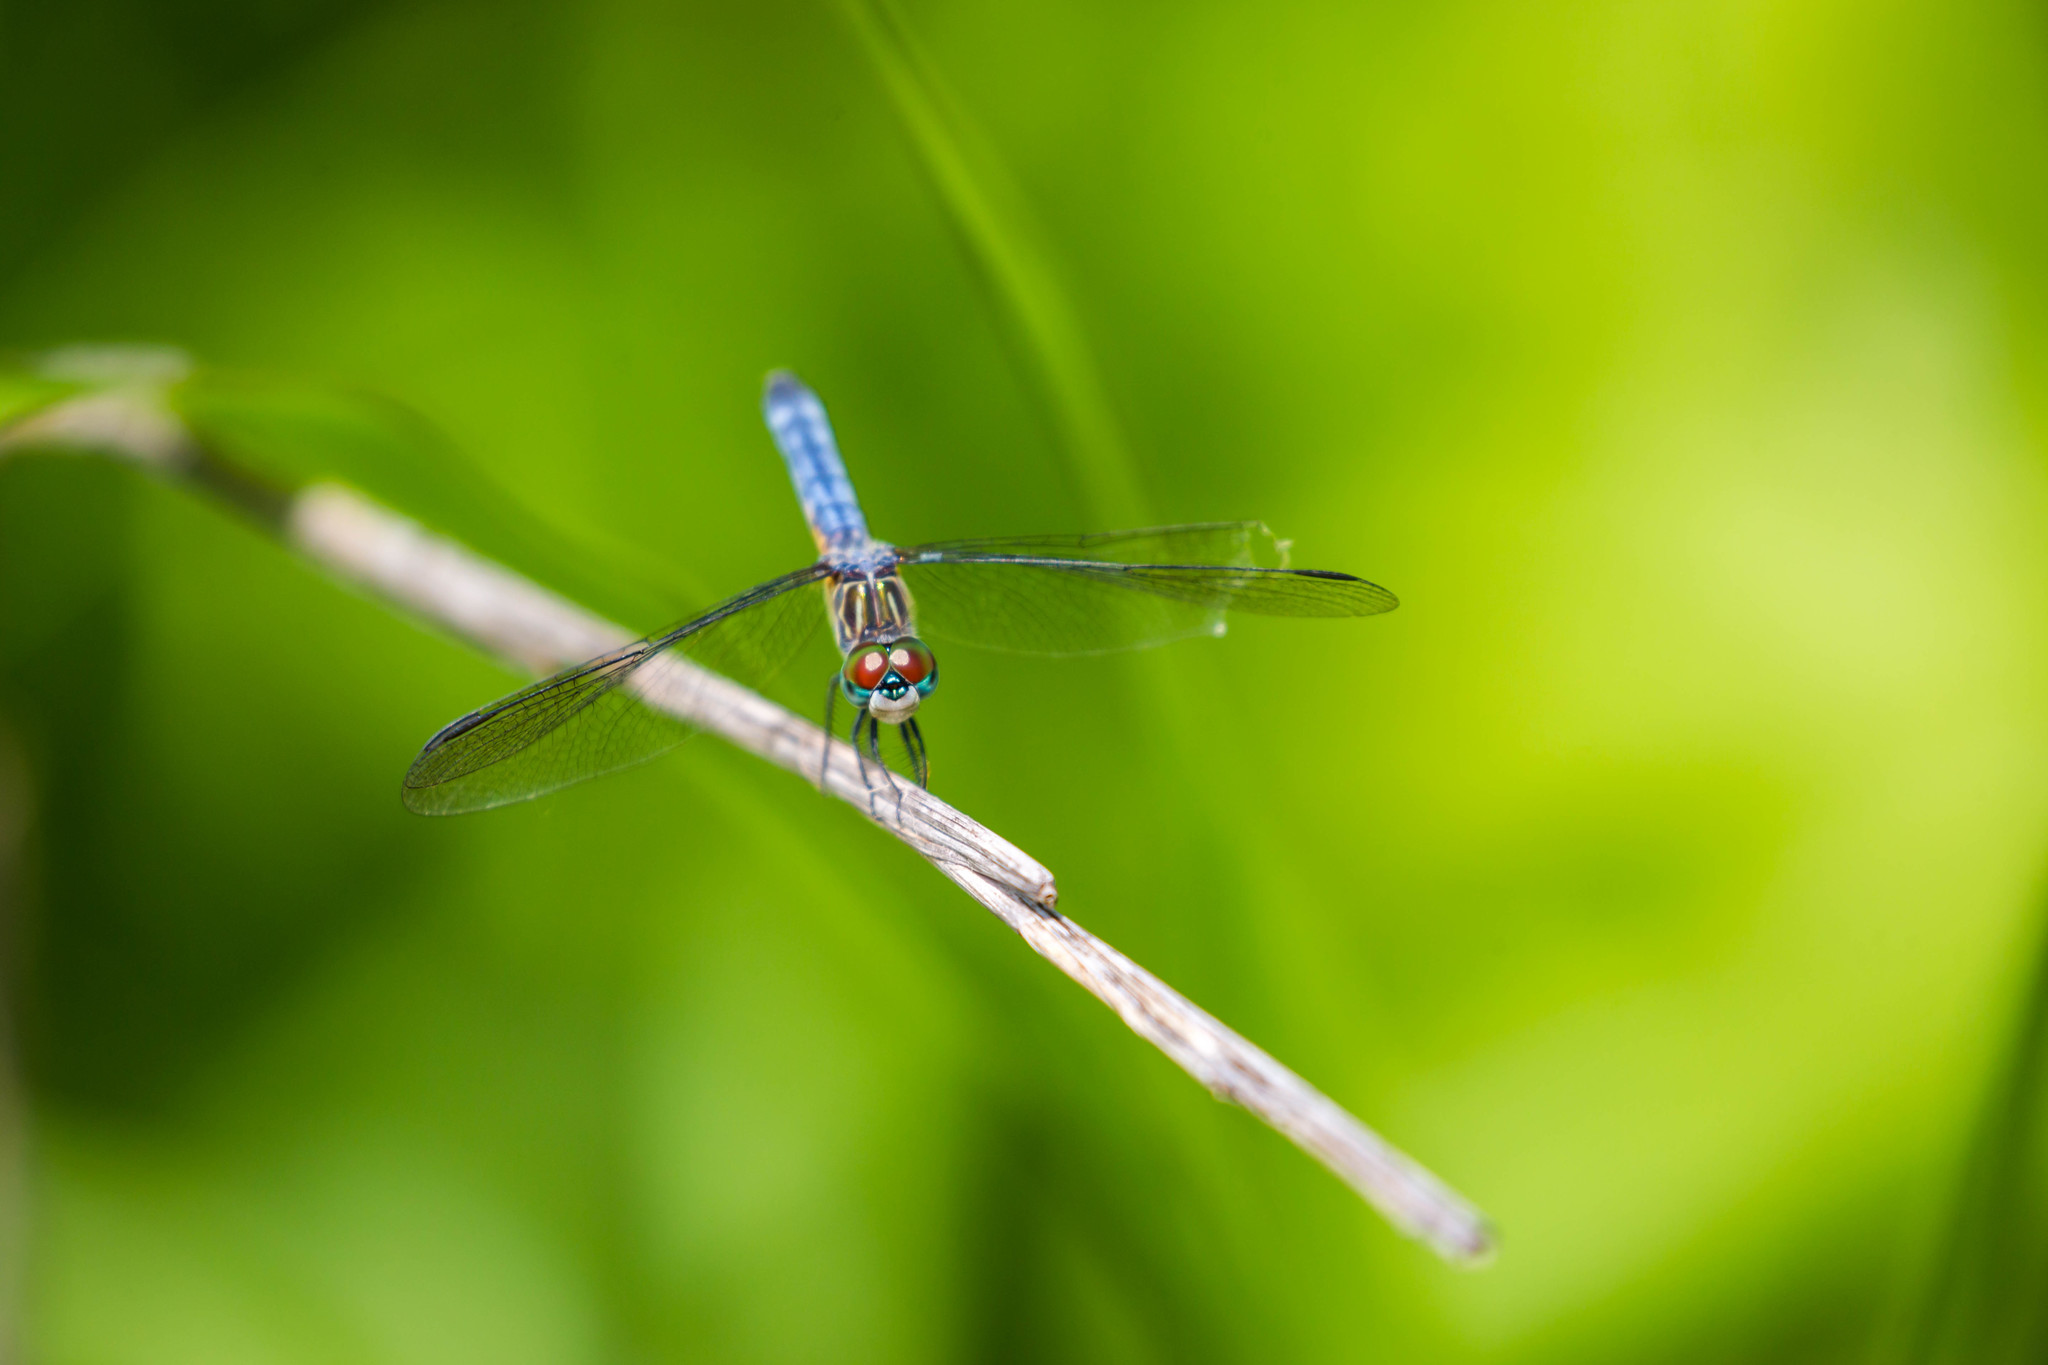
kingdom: Animalia
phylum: Arthropoda
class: Insecta
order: Odonata
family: Libellulidae
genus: Pachydiplax
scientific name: Pachydiplax longipennis
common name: Blue dasher
